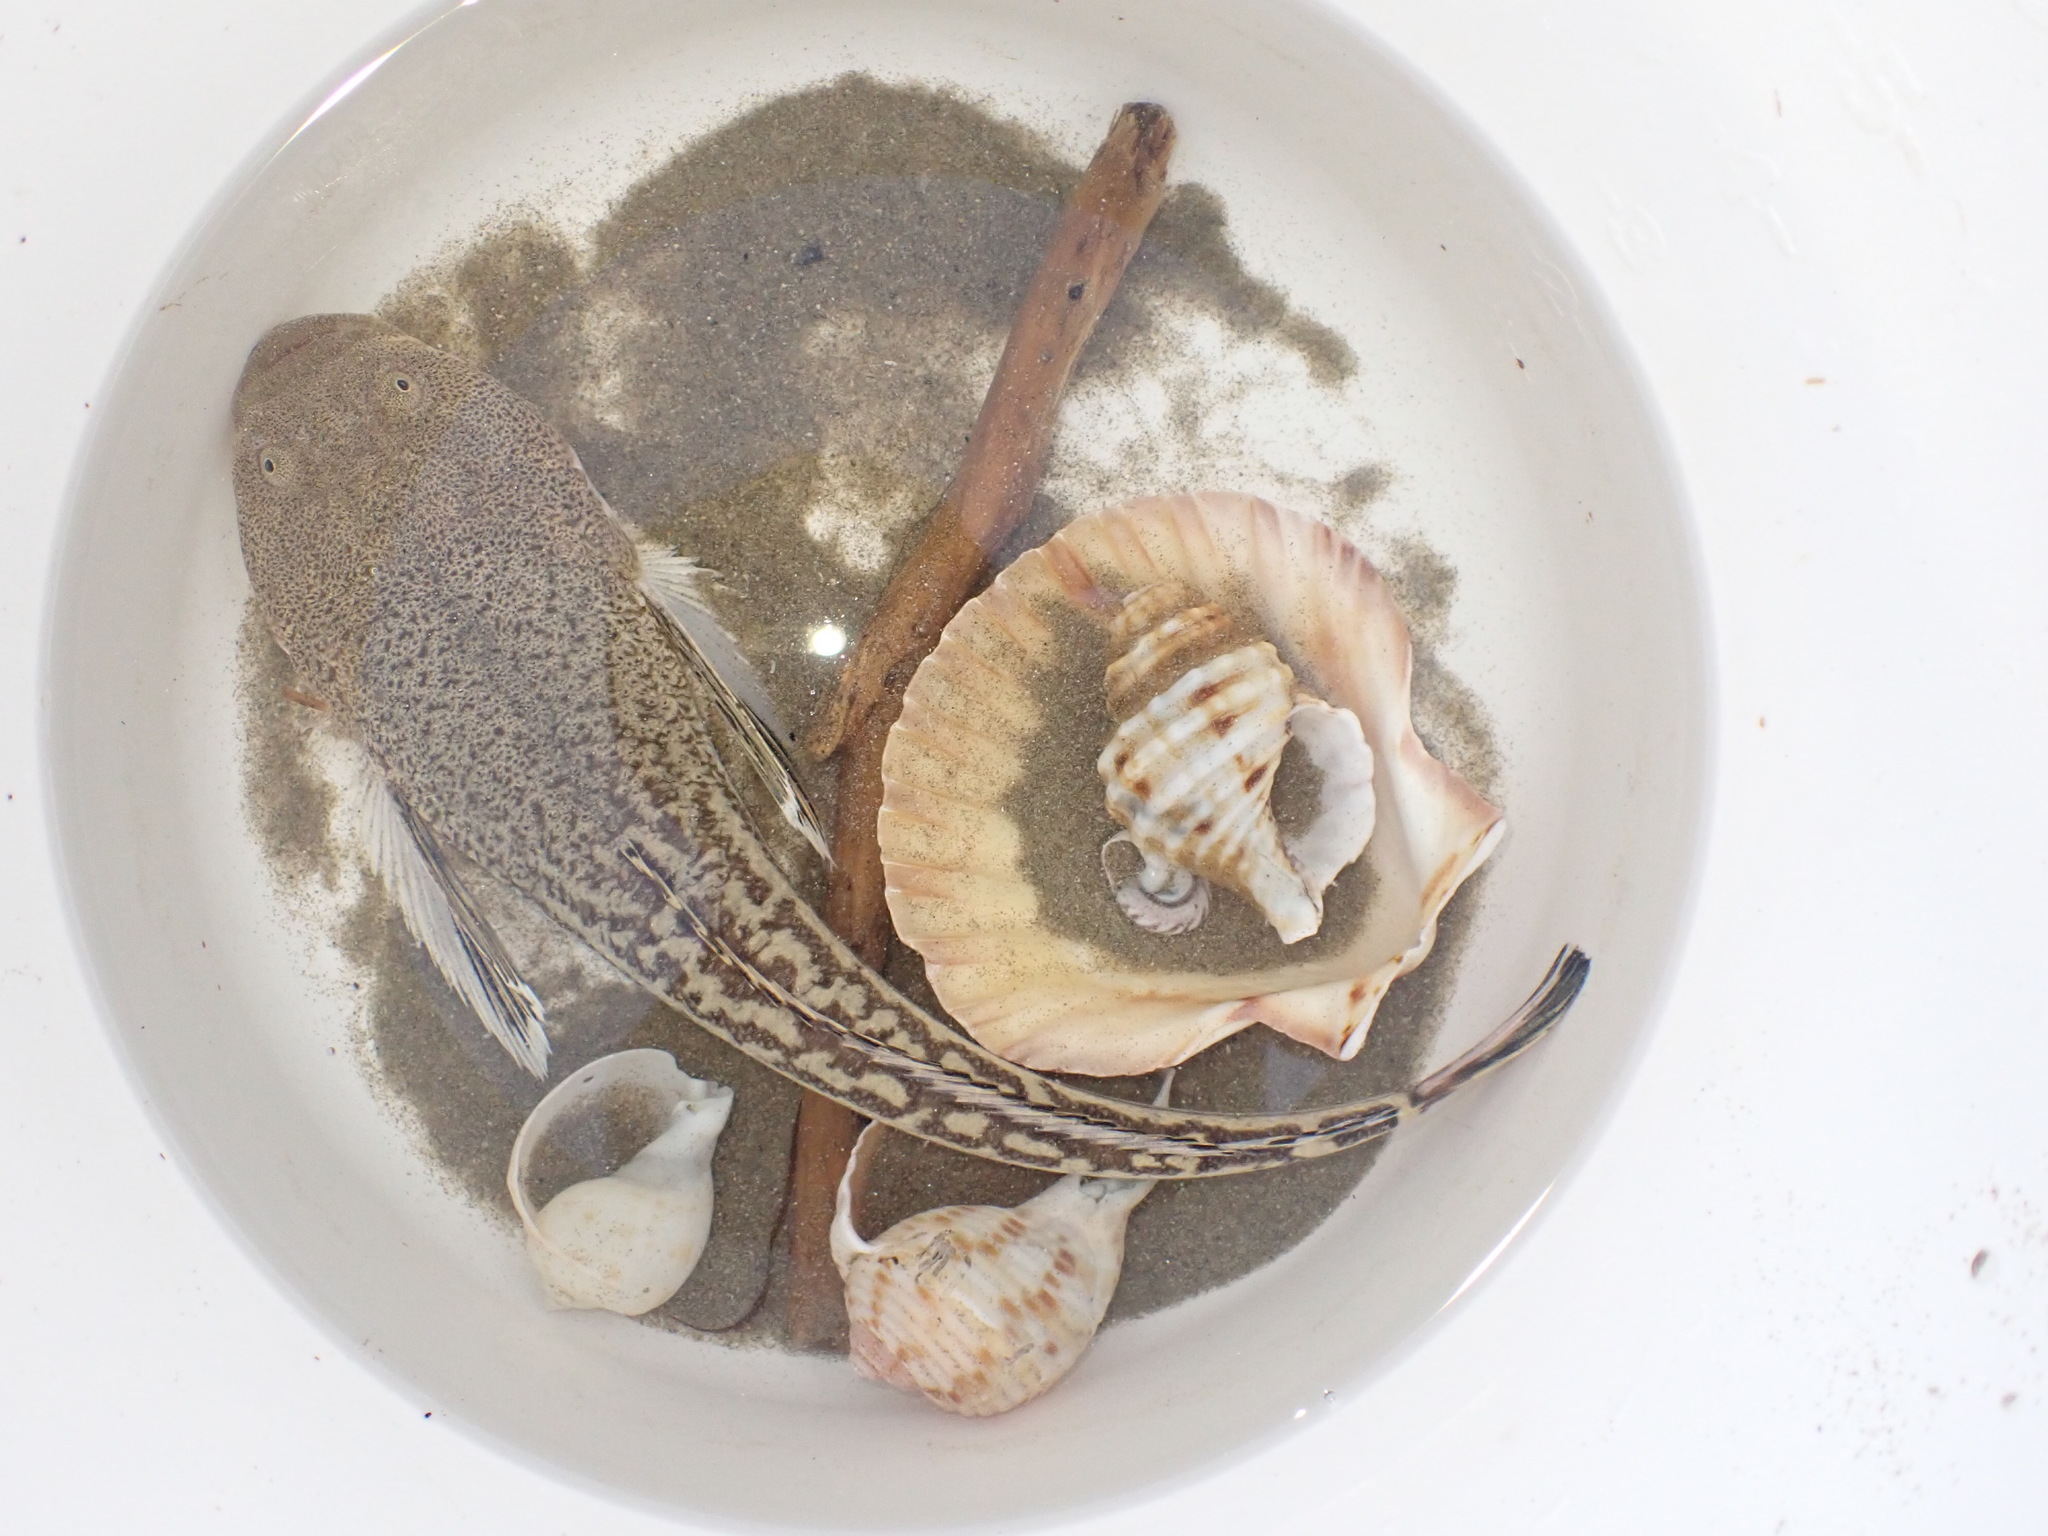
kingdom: Animalia
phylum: Chordata
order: Perciformes
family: Leptoscopidae
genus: Leptoscopus
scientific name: Leptoscopus macropygus
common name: Estuary stargazer
